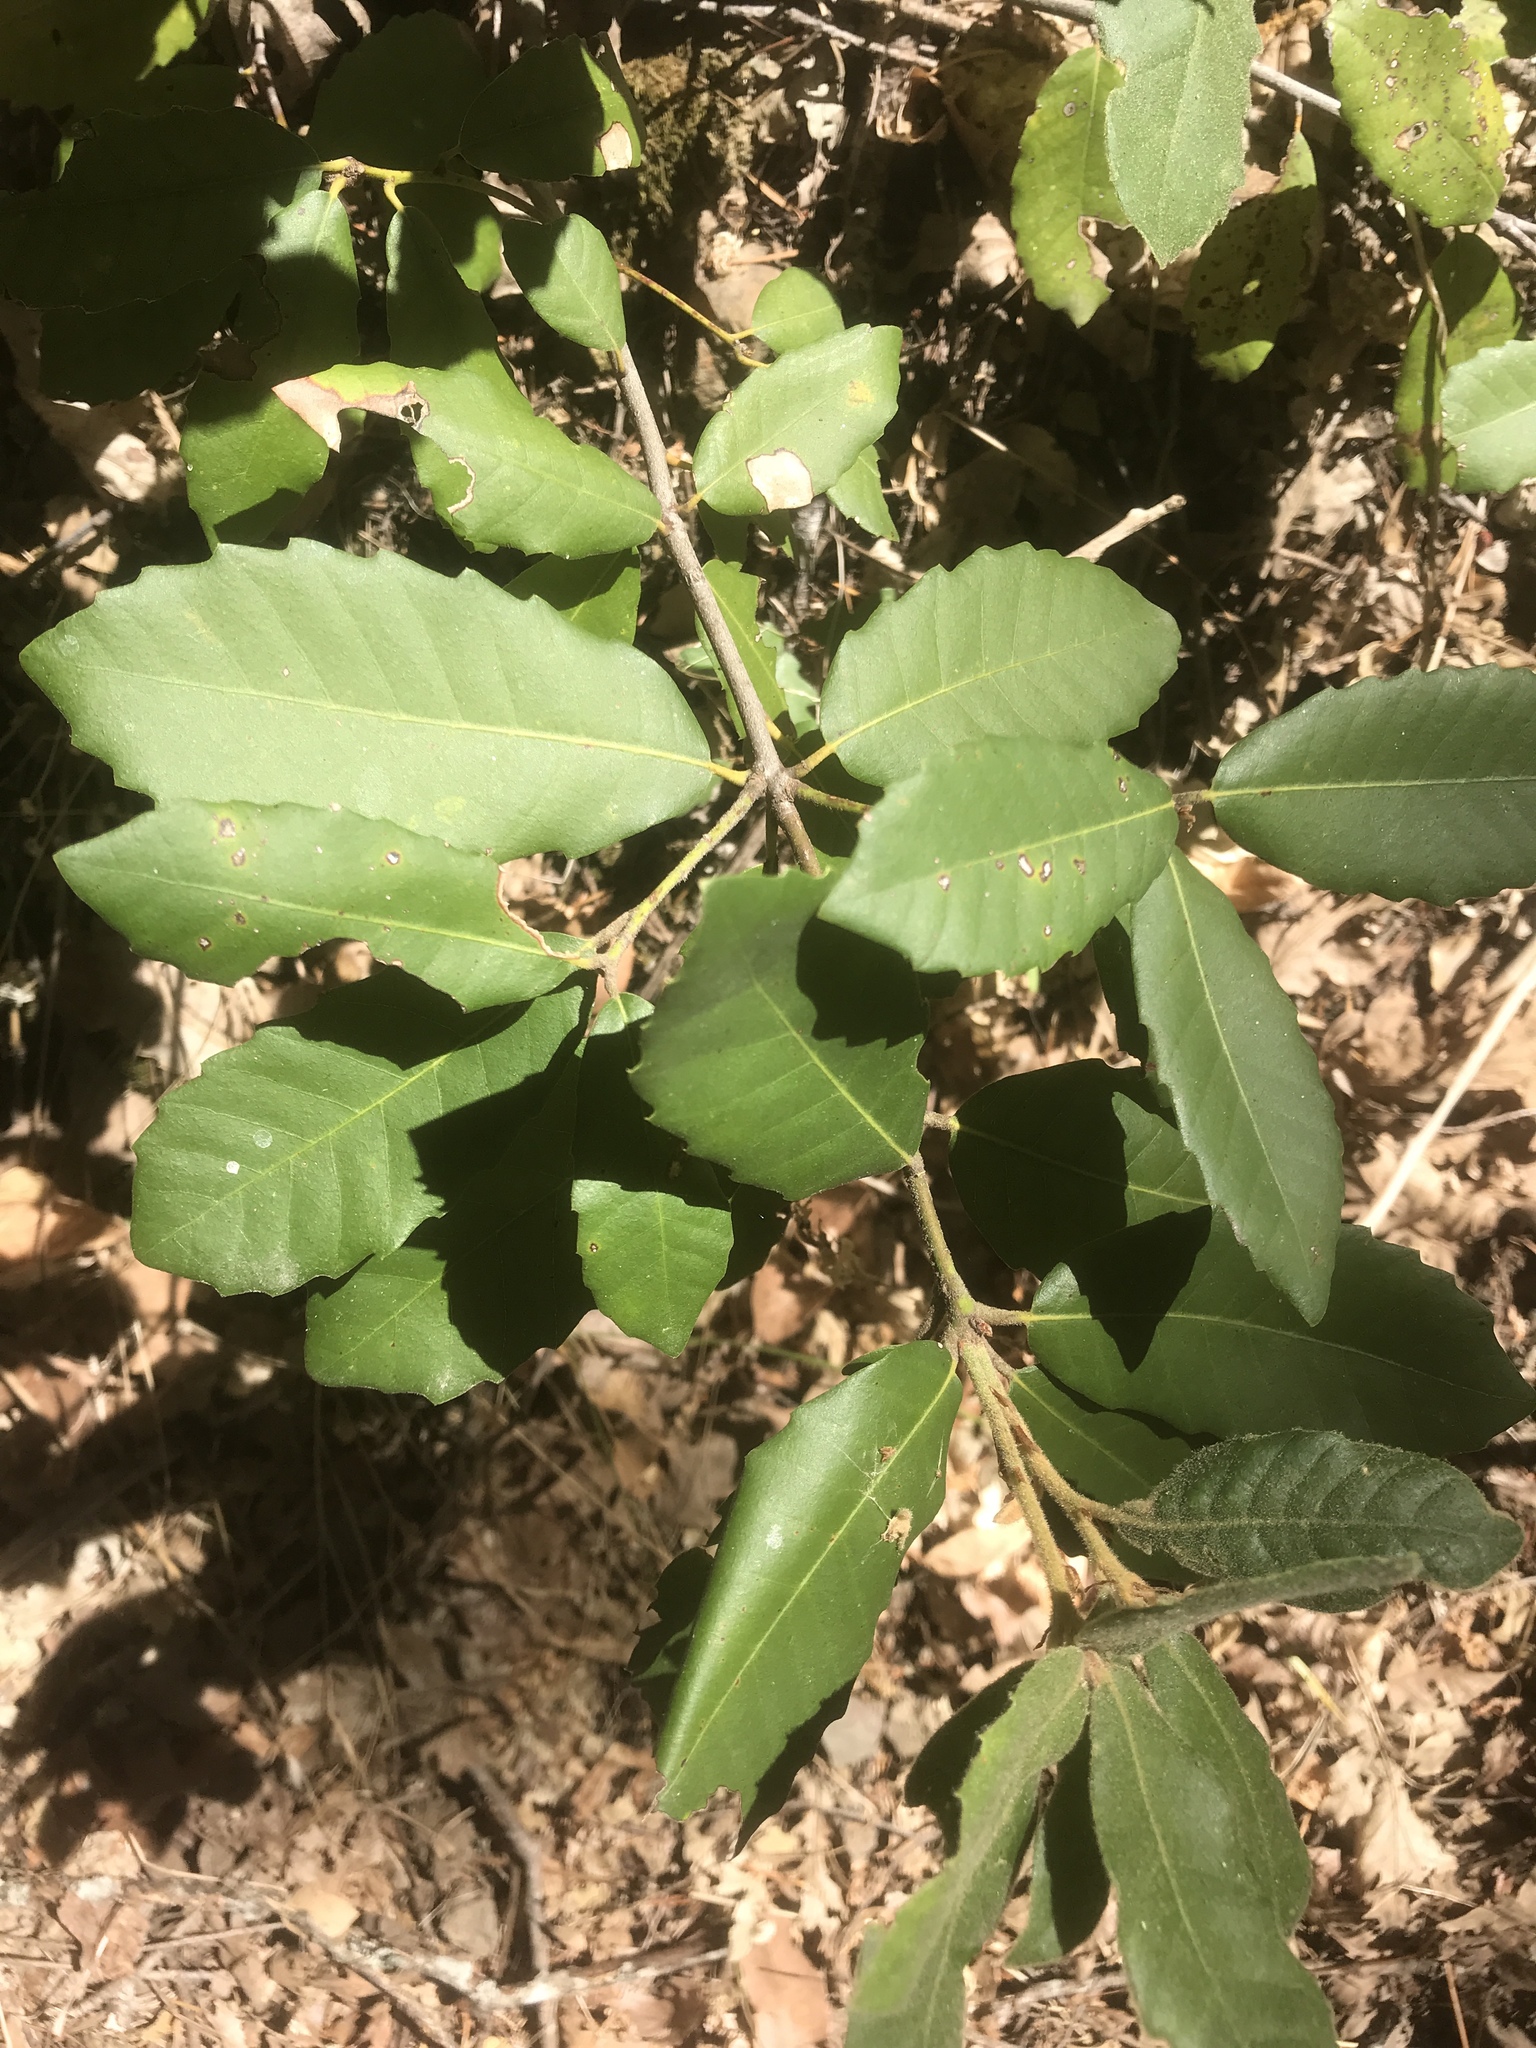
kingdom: Plantae
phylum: Tracheophyta
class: Magnoliopsida
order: Fagales
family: Fagaceae
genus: Notholithocarpus
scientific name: Notholithocarpus densiflorus
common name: Tan bark oak
